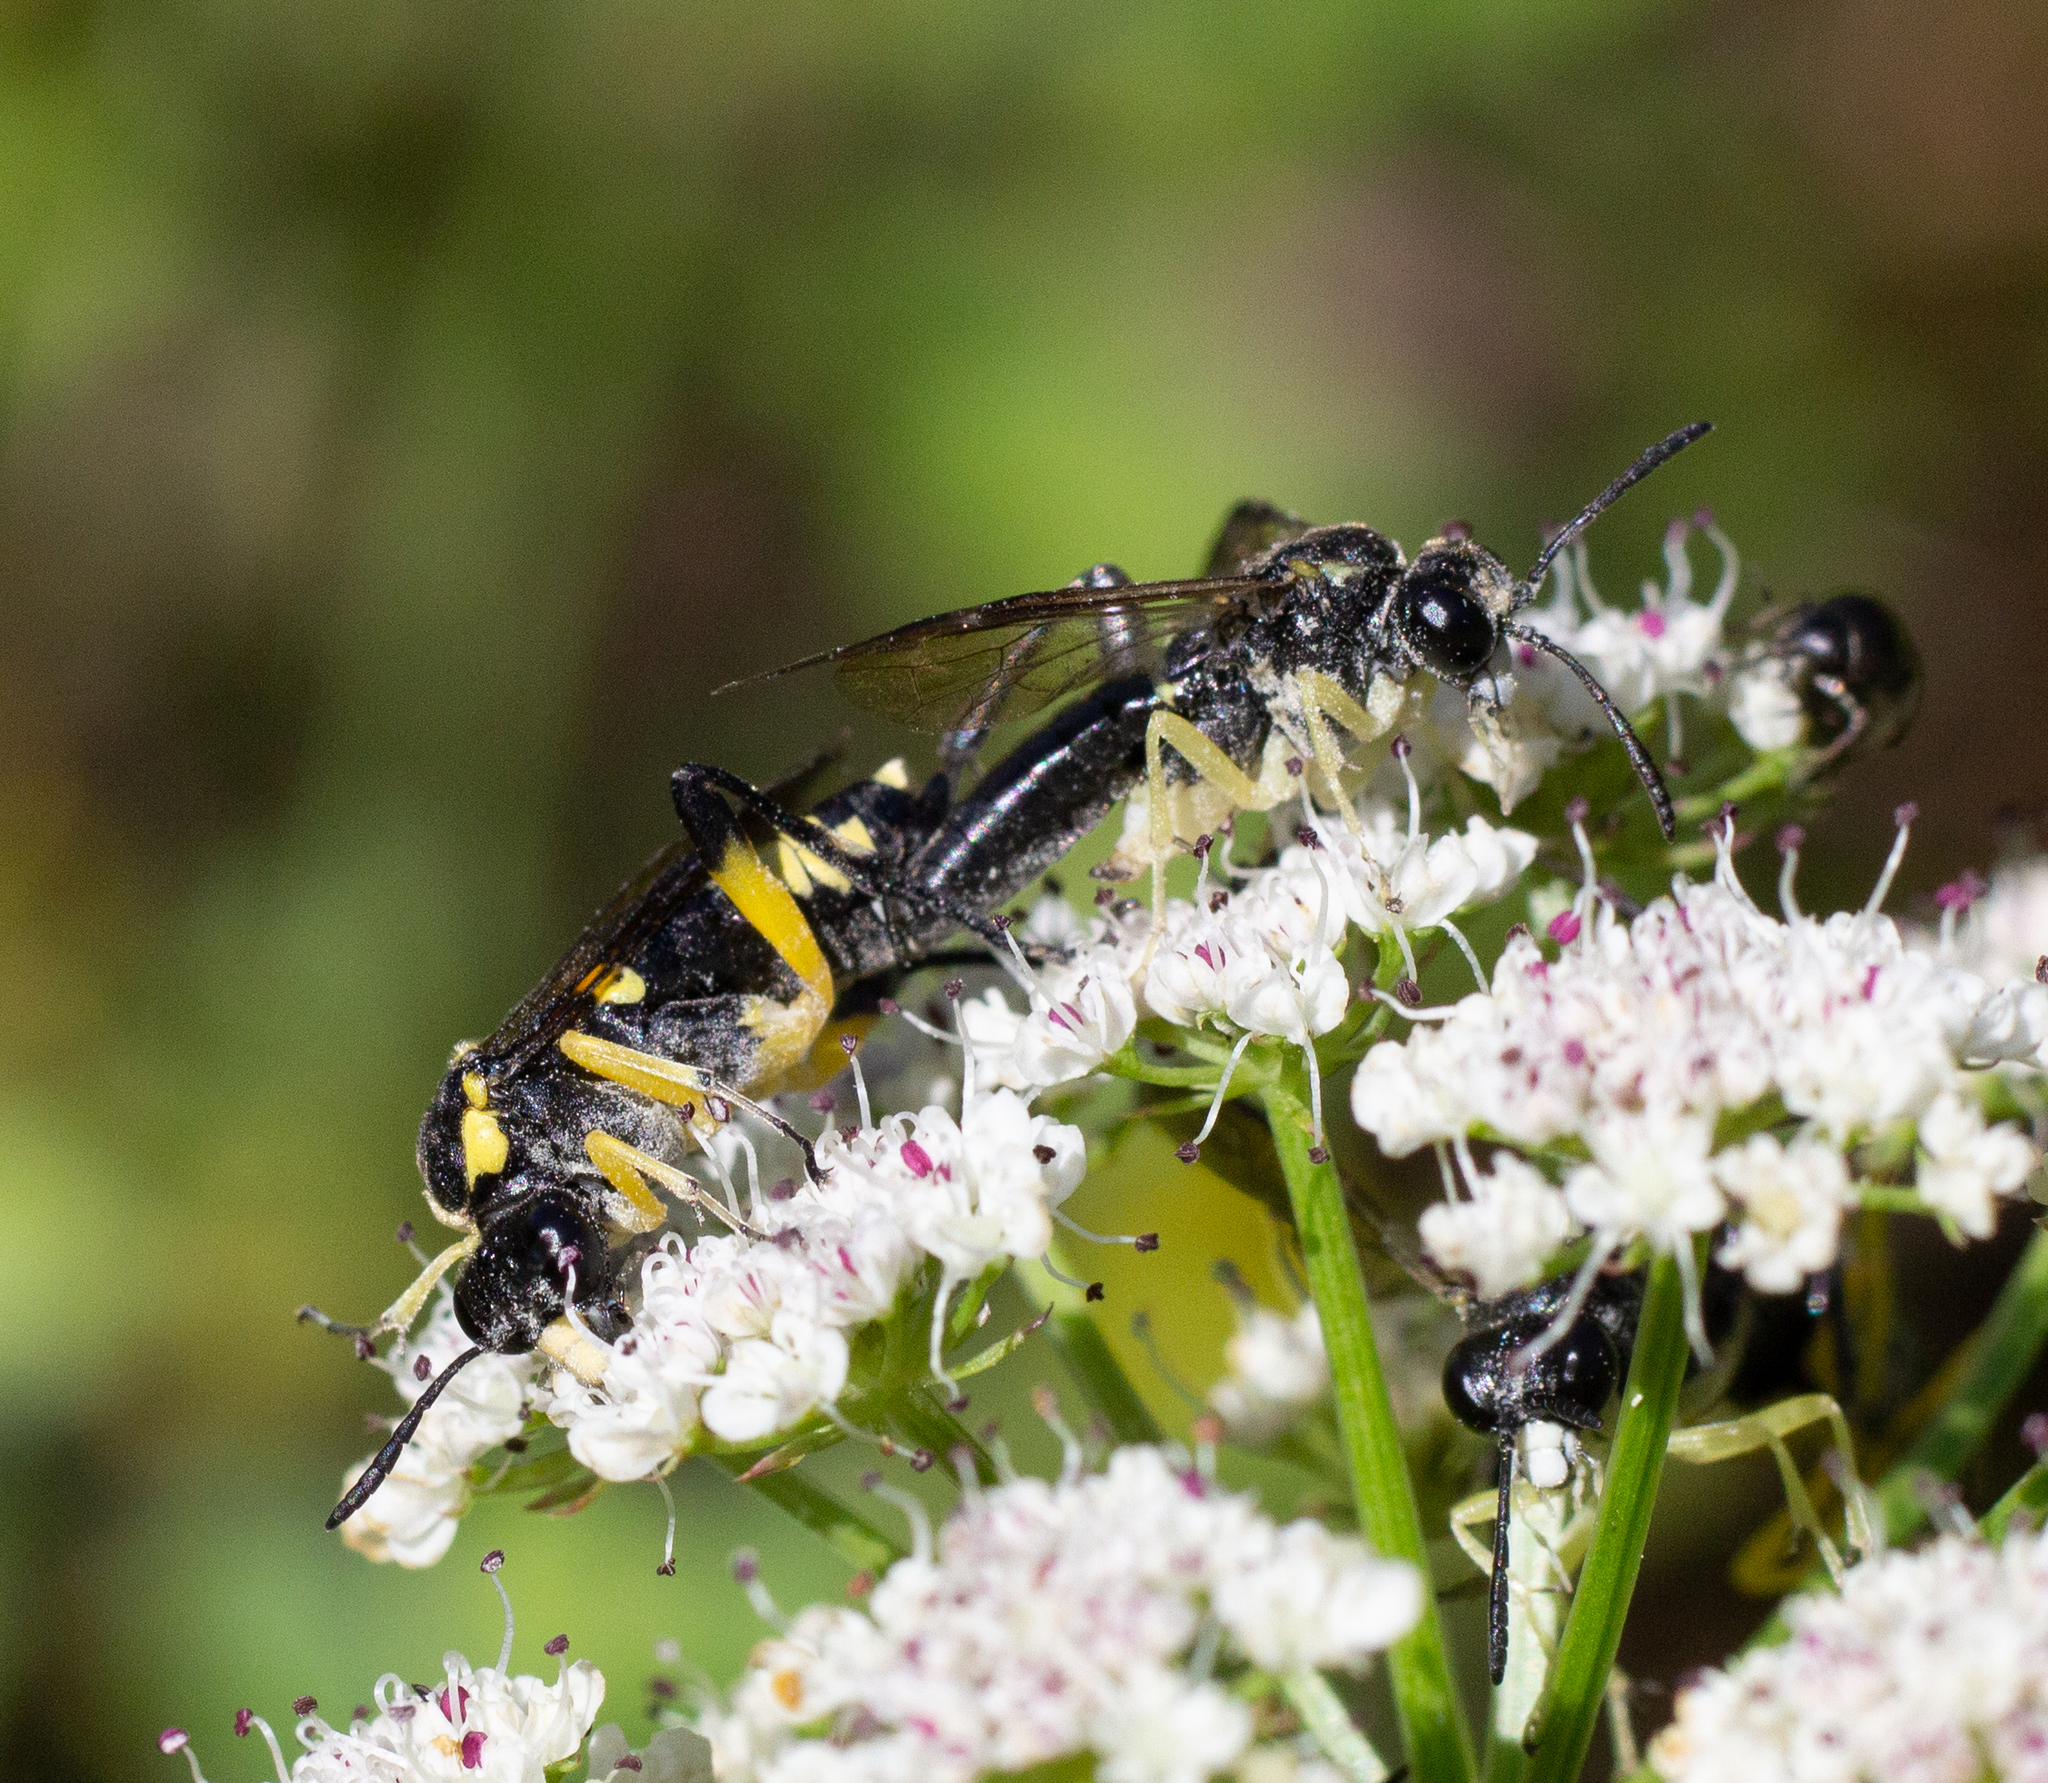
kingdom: Animalia
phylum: Arthropoda
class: Insecta
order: Hymenoptera
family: Tenthredinidae
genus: Macrophya
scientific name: Macrophya montana
